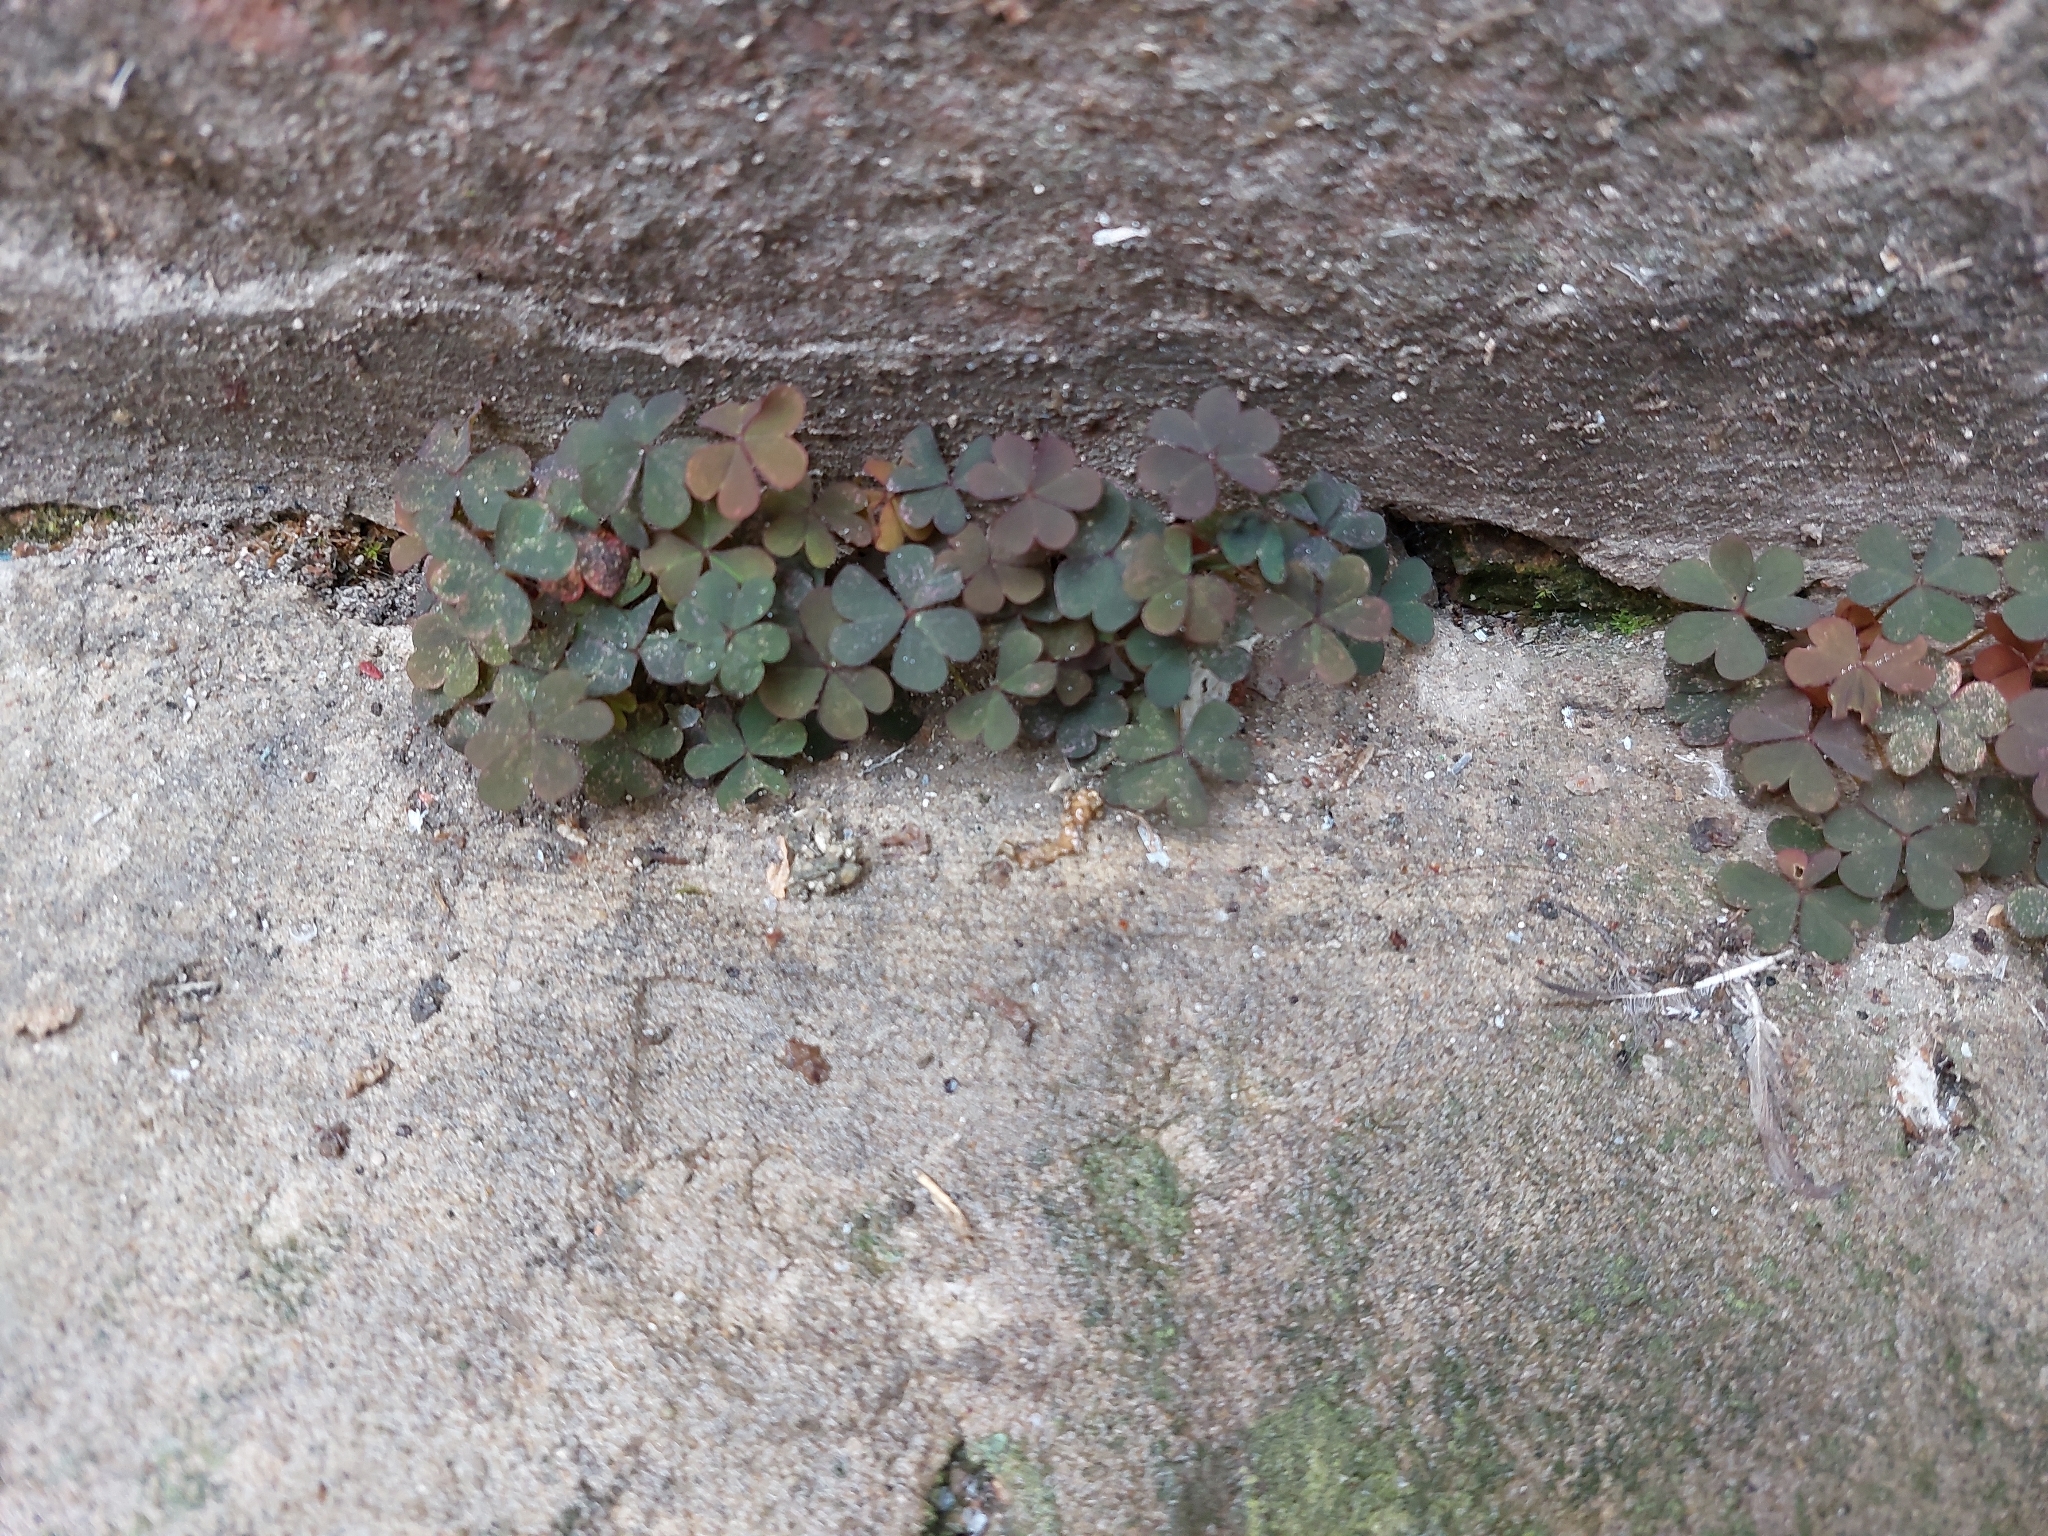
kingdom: Plantae
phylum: Tracheophyta
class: Magnoliopsida
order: Oxalidales
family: Oxalidaceae
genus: Oxalis
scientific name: Oxalis corniculata
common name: Procumbent yellow-sorrel
